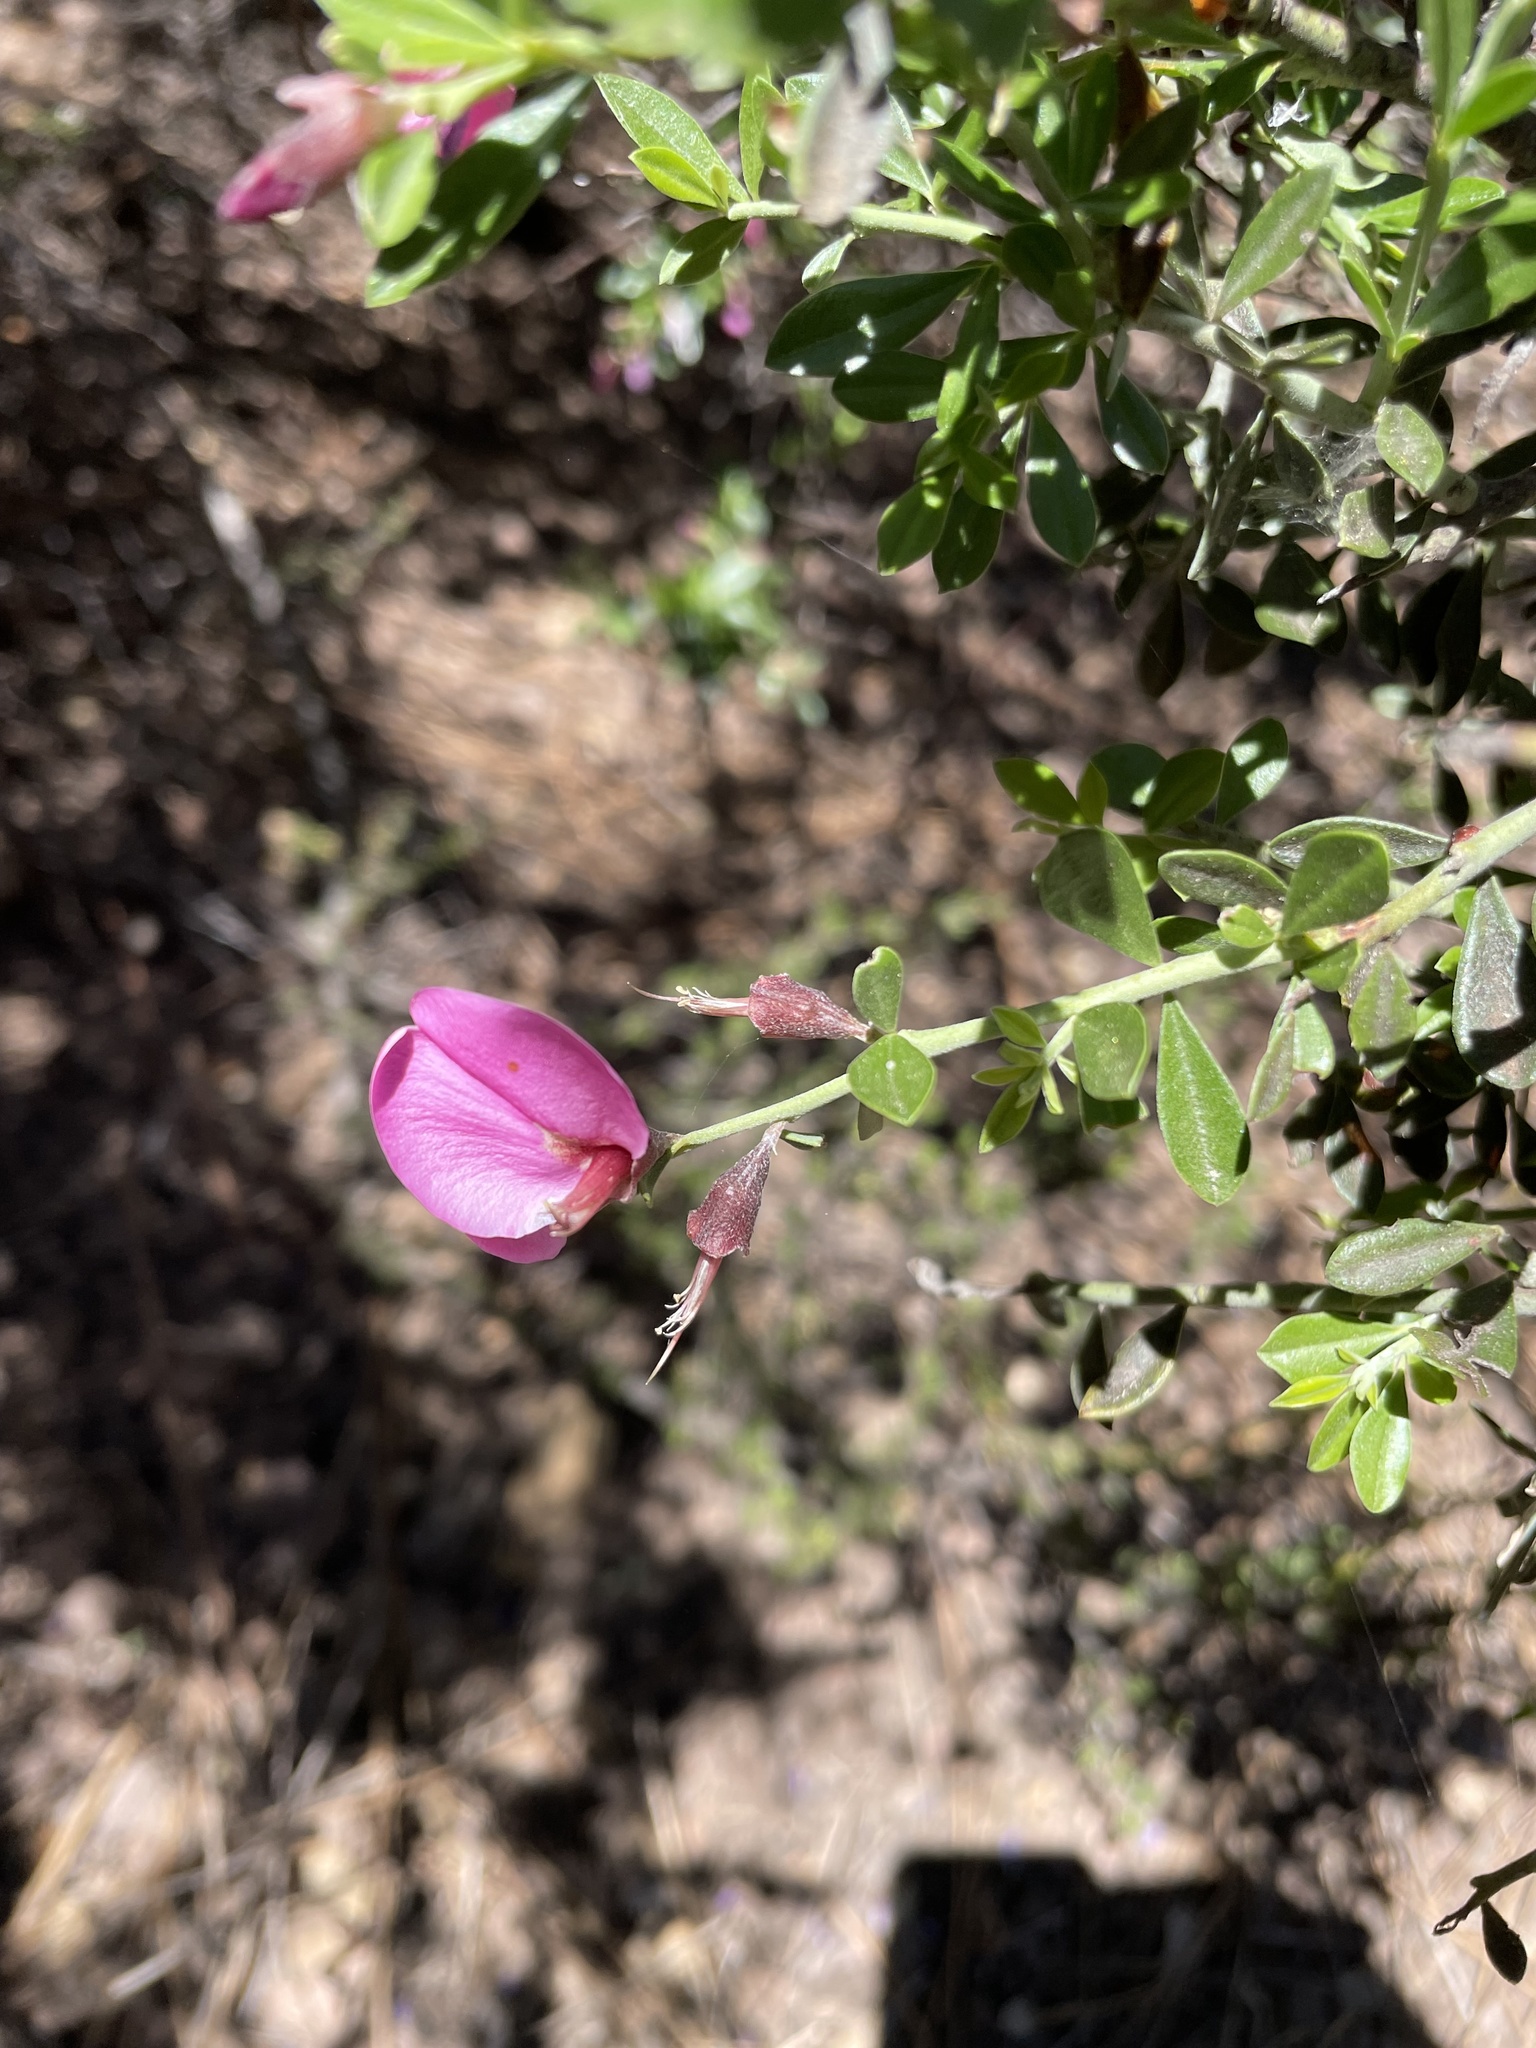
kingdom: Plantae
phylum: Tracheophyta
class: Magnoliopsida
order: Fabales
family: Fabaceae
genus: Pickeringia
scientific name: Pickeringia montana
